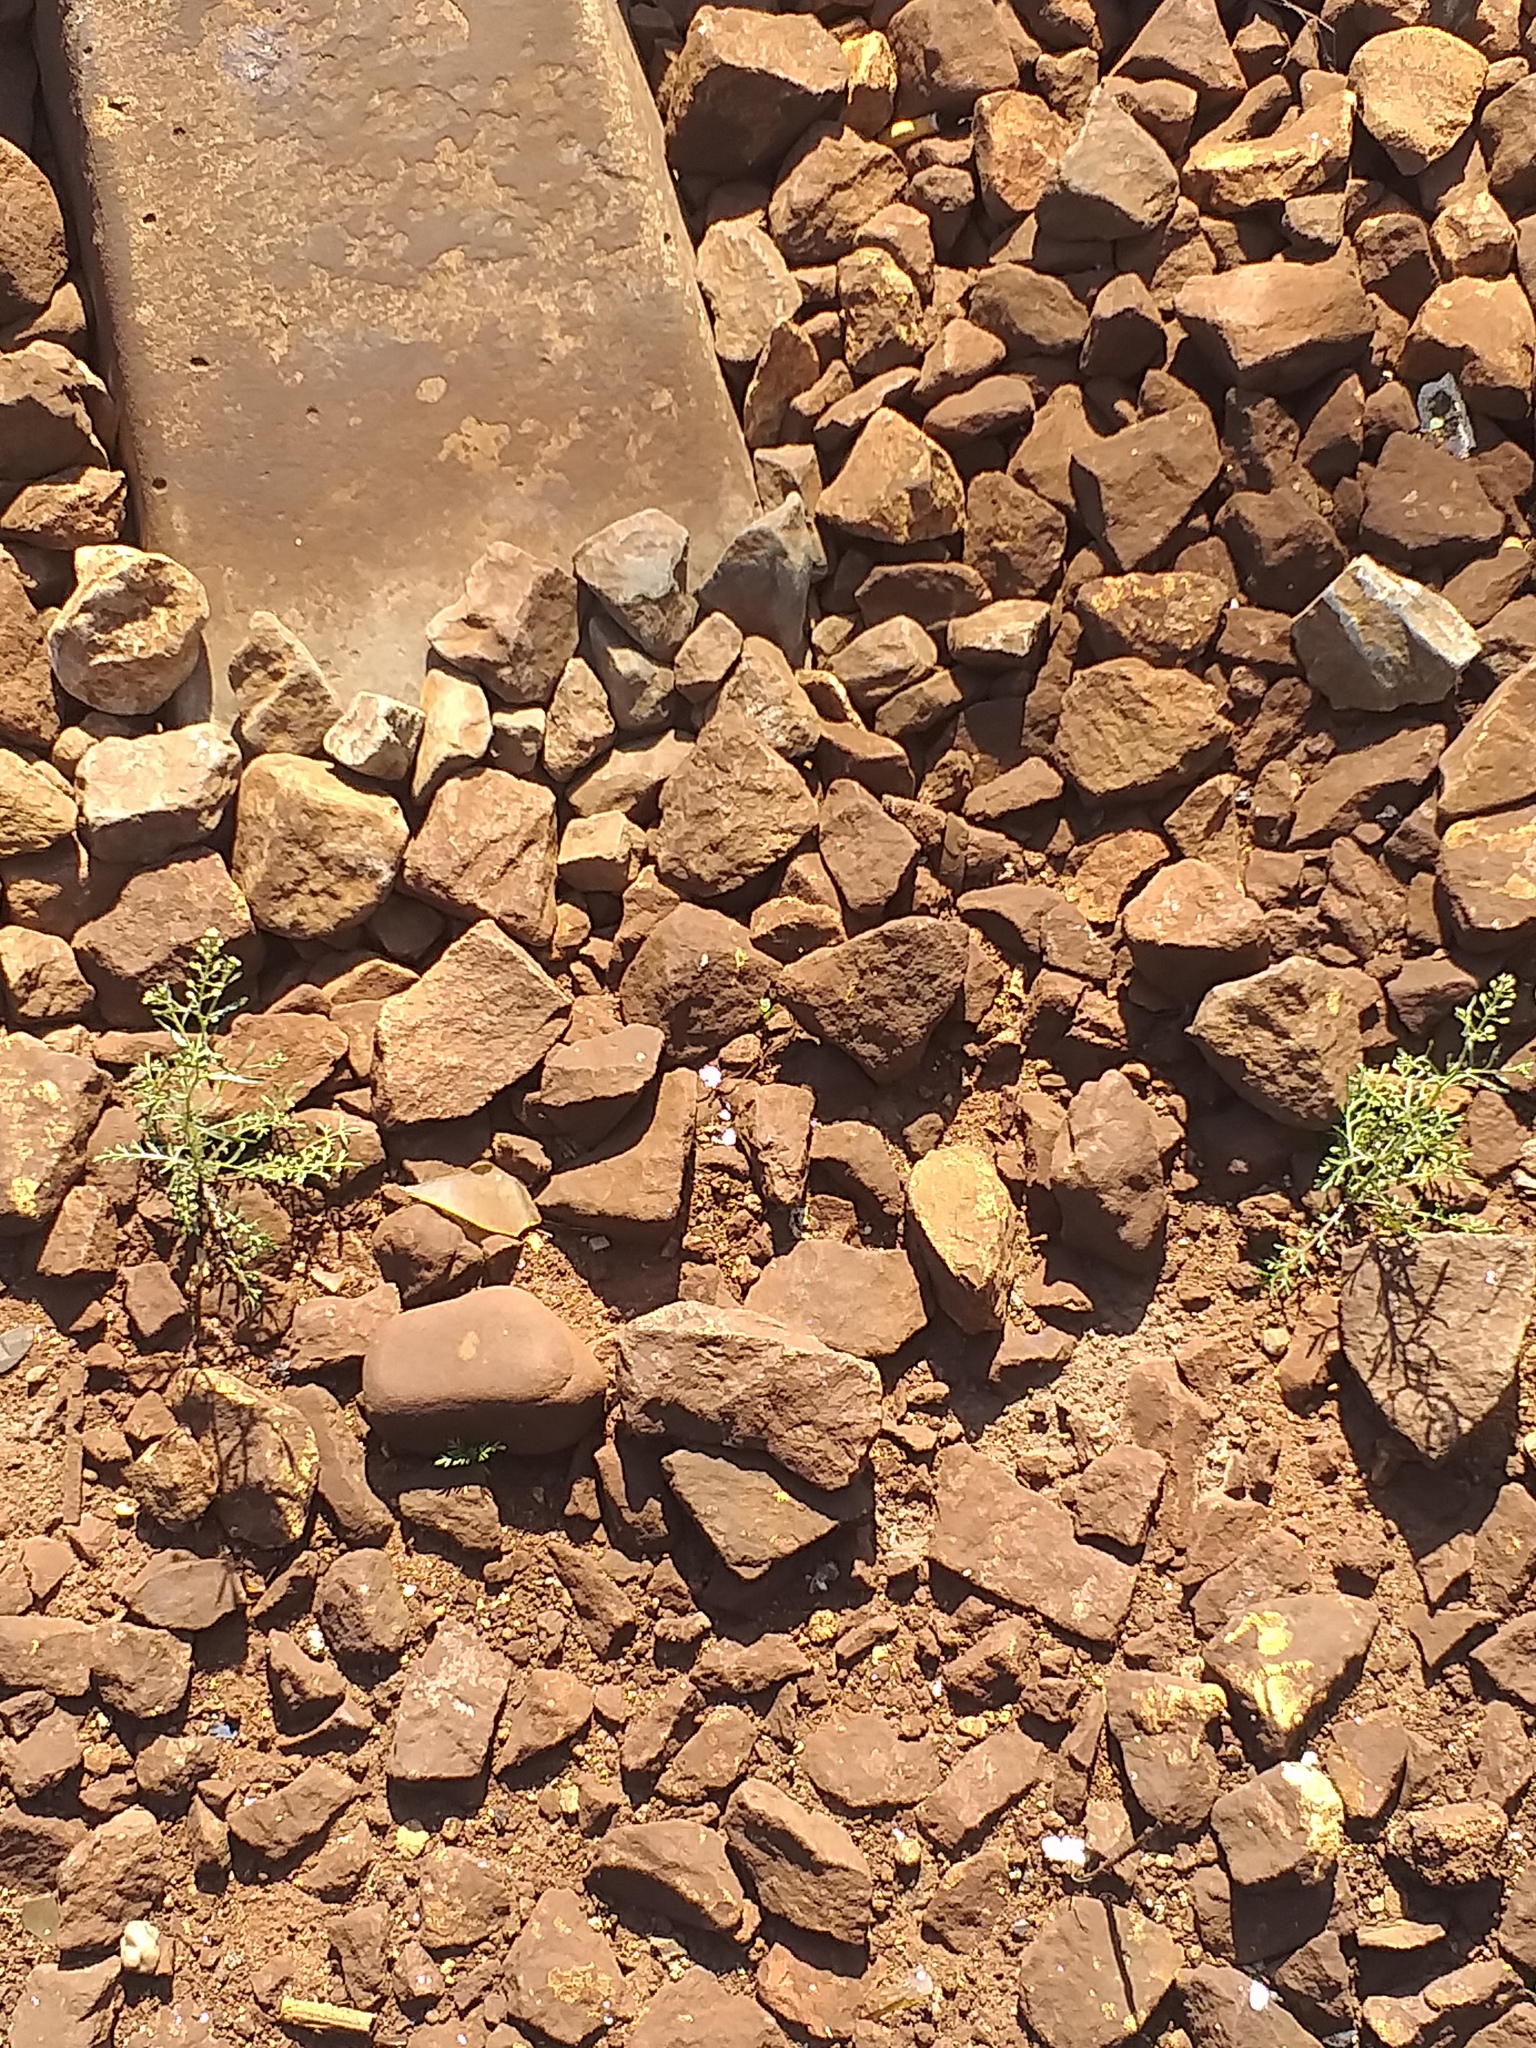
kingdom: Plantae
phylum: Tracheophyta
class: Magnoliopsida
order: Brassicales
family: Brassicaceae
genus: Lepidium
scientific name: Lepidium ruderale
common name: Narrow-leaved pepperwort
